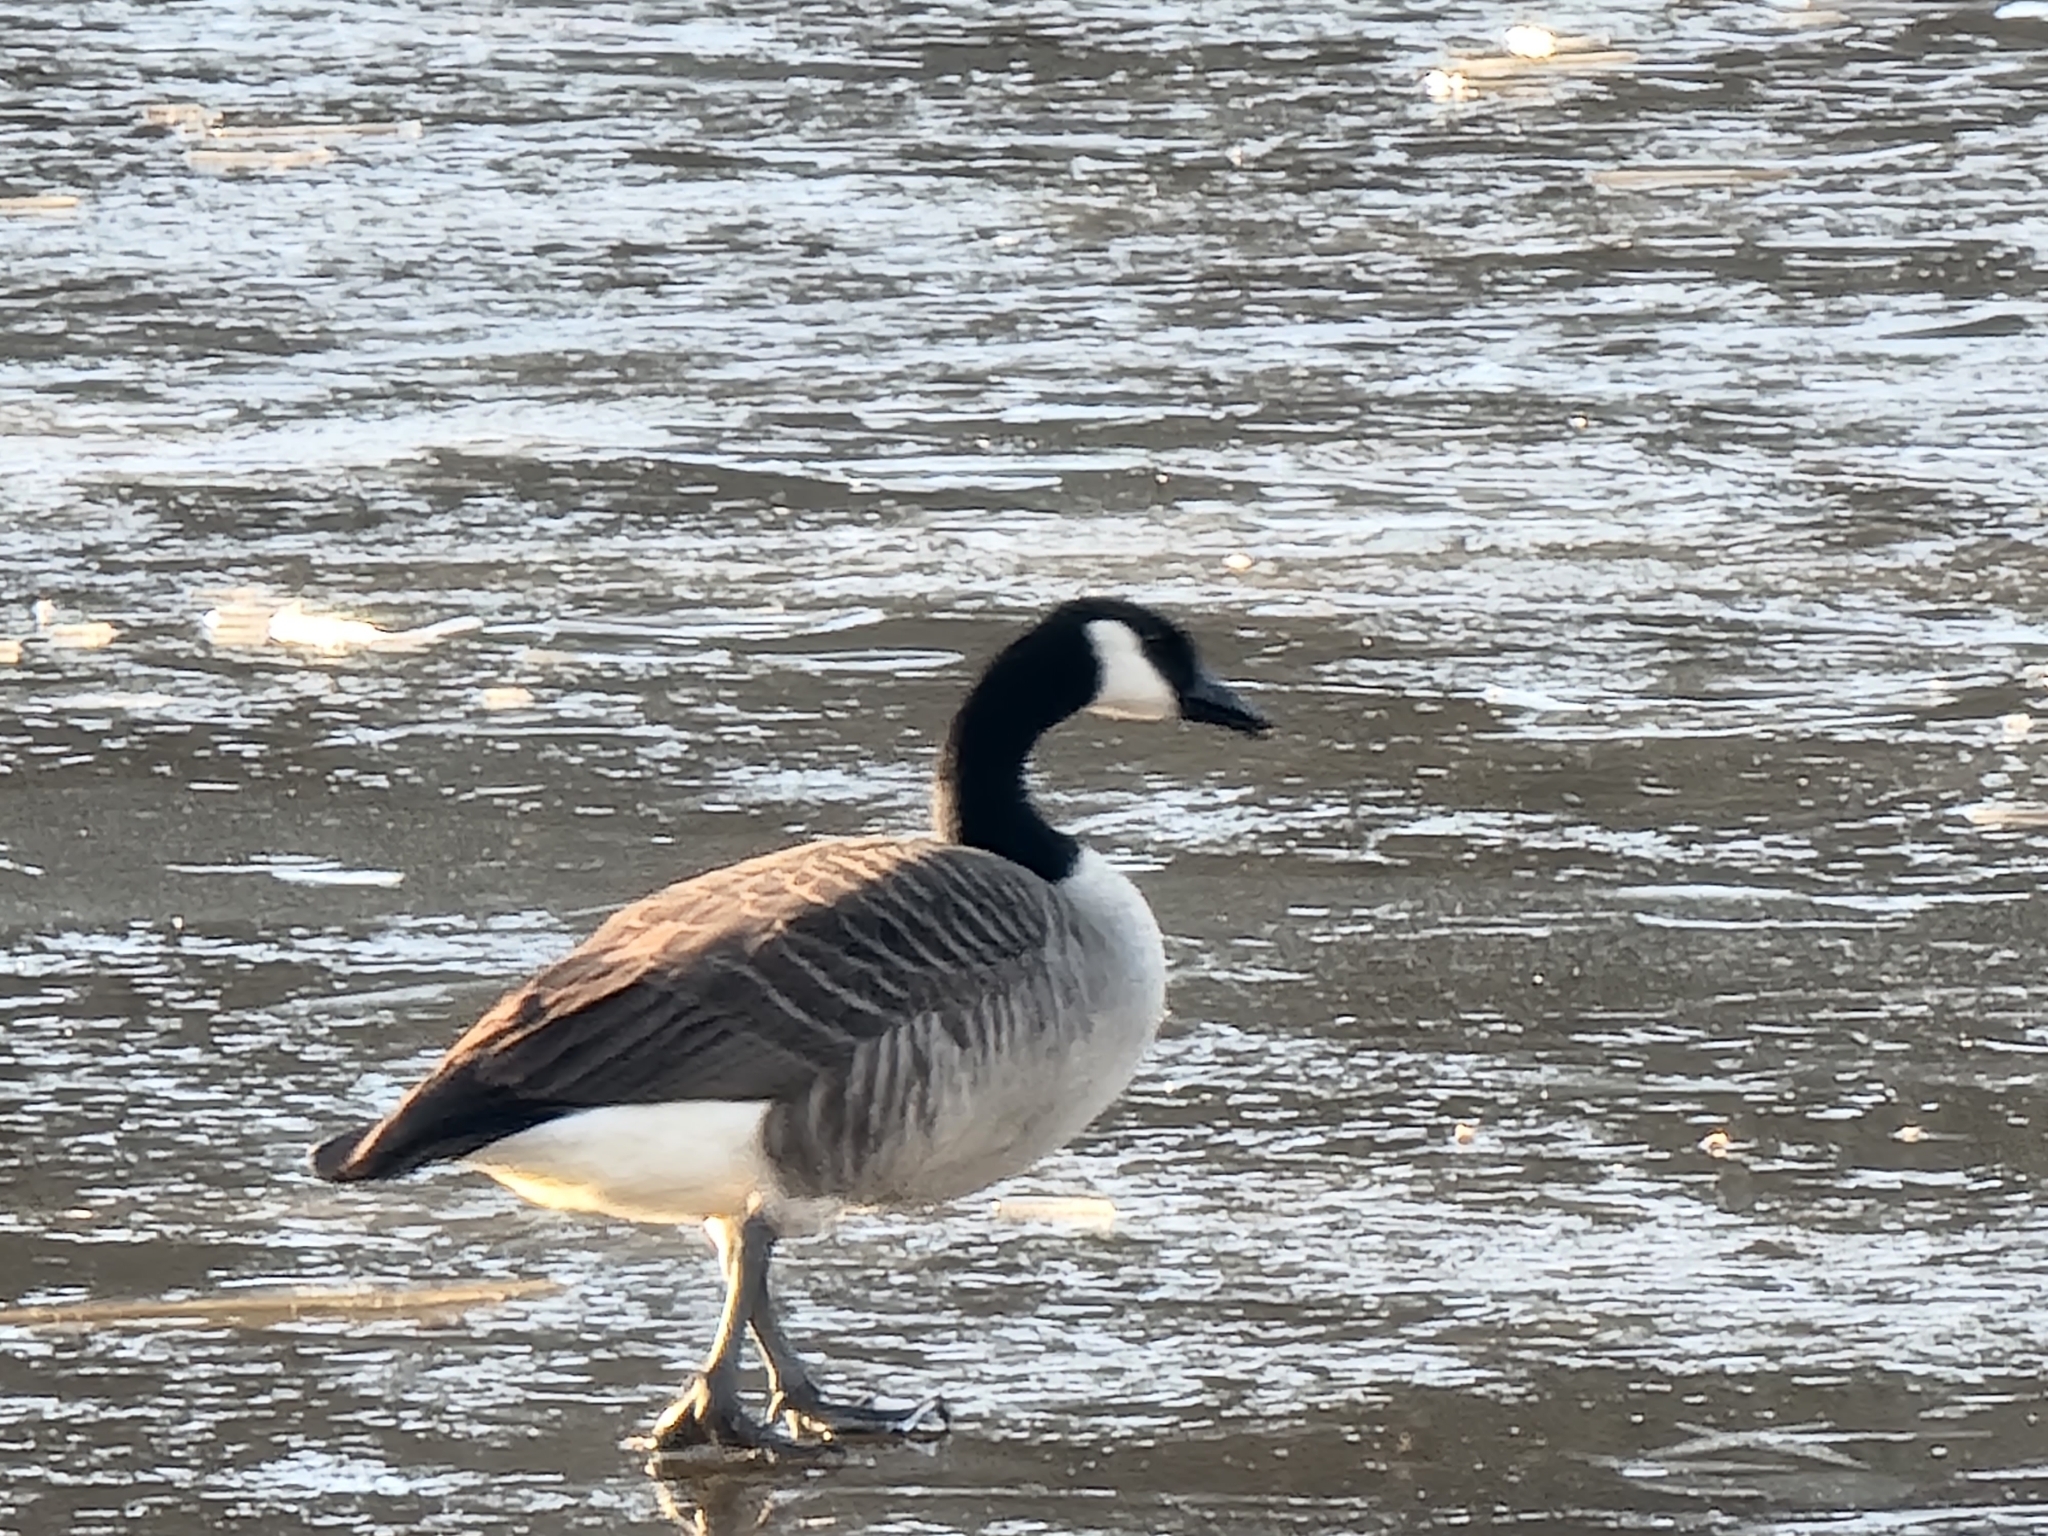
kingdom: Animalia
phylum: Chordata
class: Aves
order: Anseriformes
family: Anatidae
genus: Branta
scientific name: Branta canadensis
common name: Canada goose
